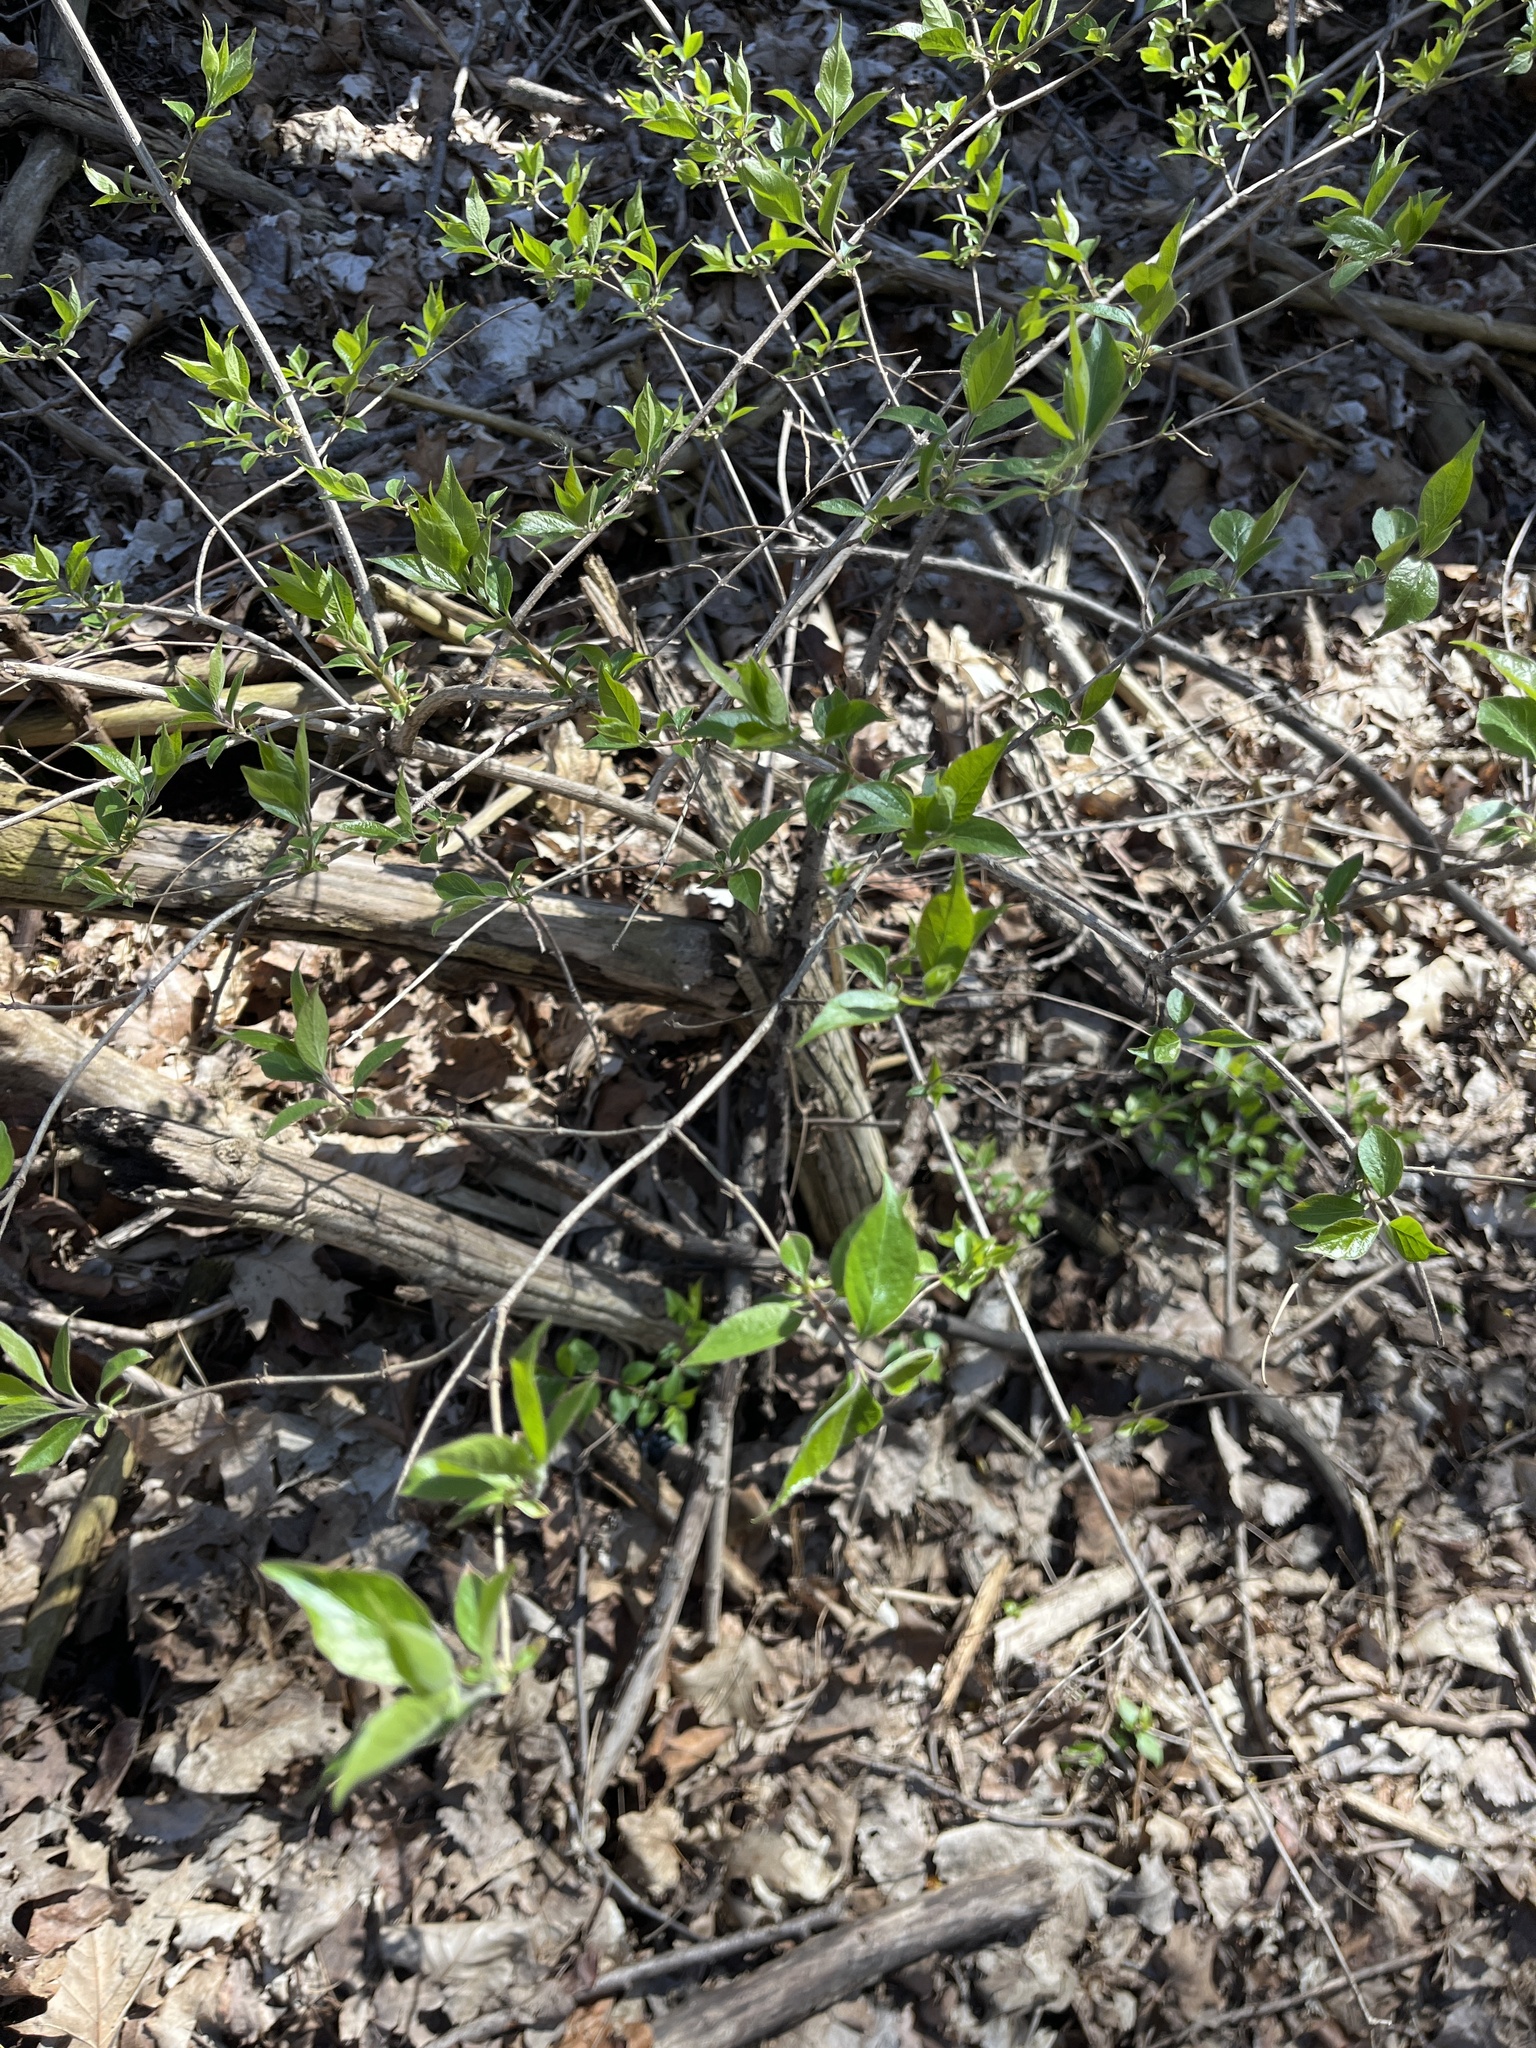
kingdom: Plantae
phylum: Tracheophyta
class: Magnoliopsida
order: Dipsacales
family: Caprifoliaceae
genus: Lonicera
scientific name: Lonicera maackii
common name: Amur honeysuckle
